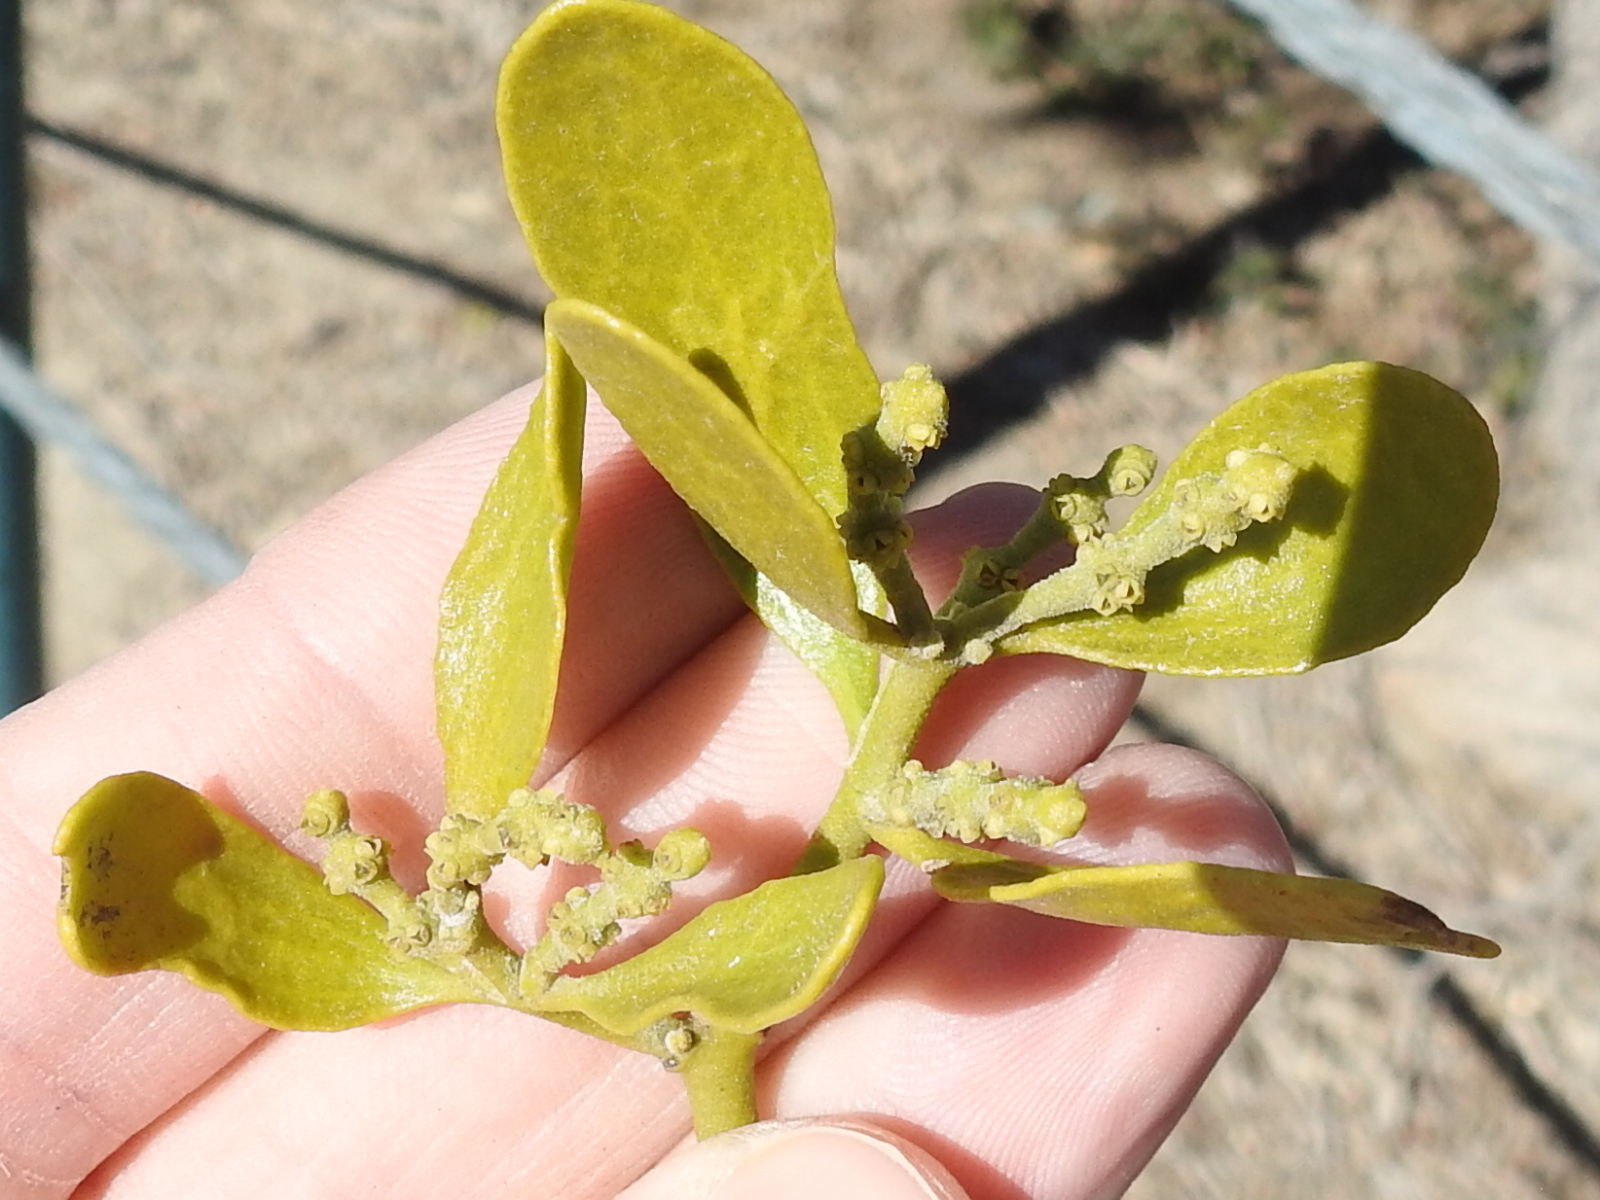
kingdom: Plantae
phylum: Tracheophyta
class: Magnoliopsida
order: Santalales
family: Viscaceae
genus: Phoradendron
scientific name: Phoradendron leucarpum
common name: Pacific mistletoe
